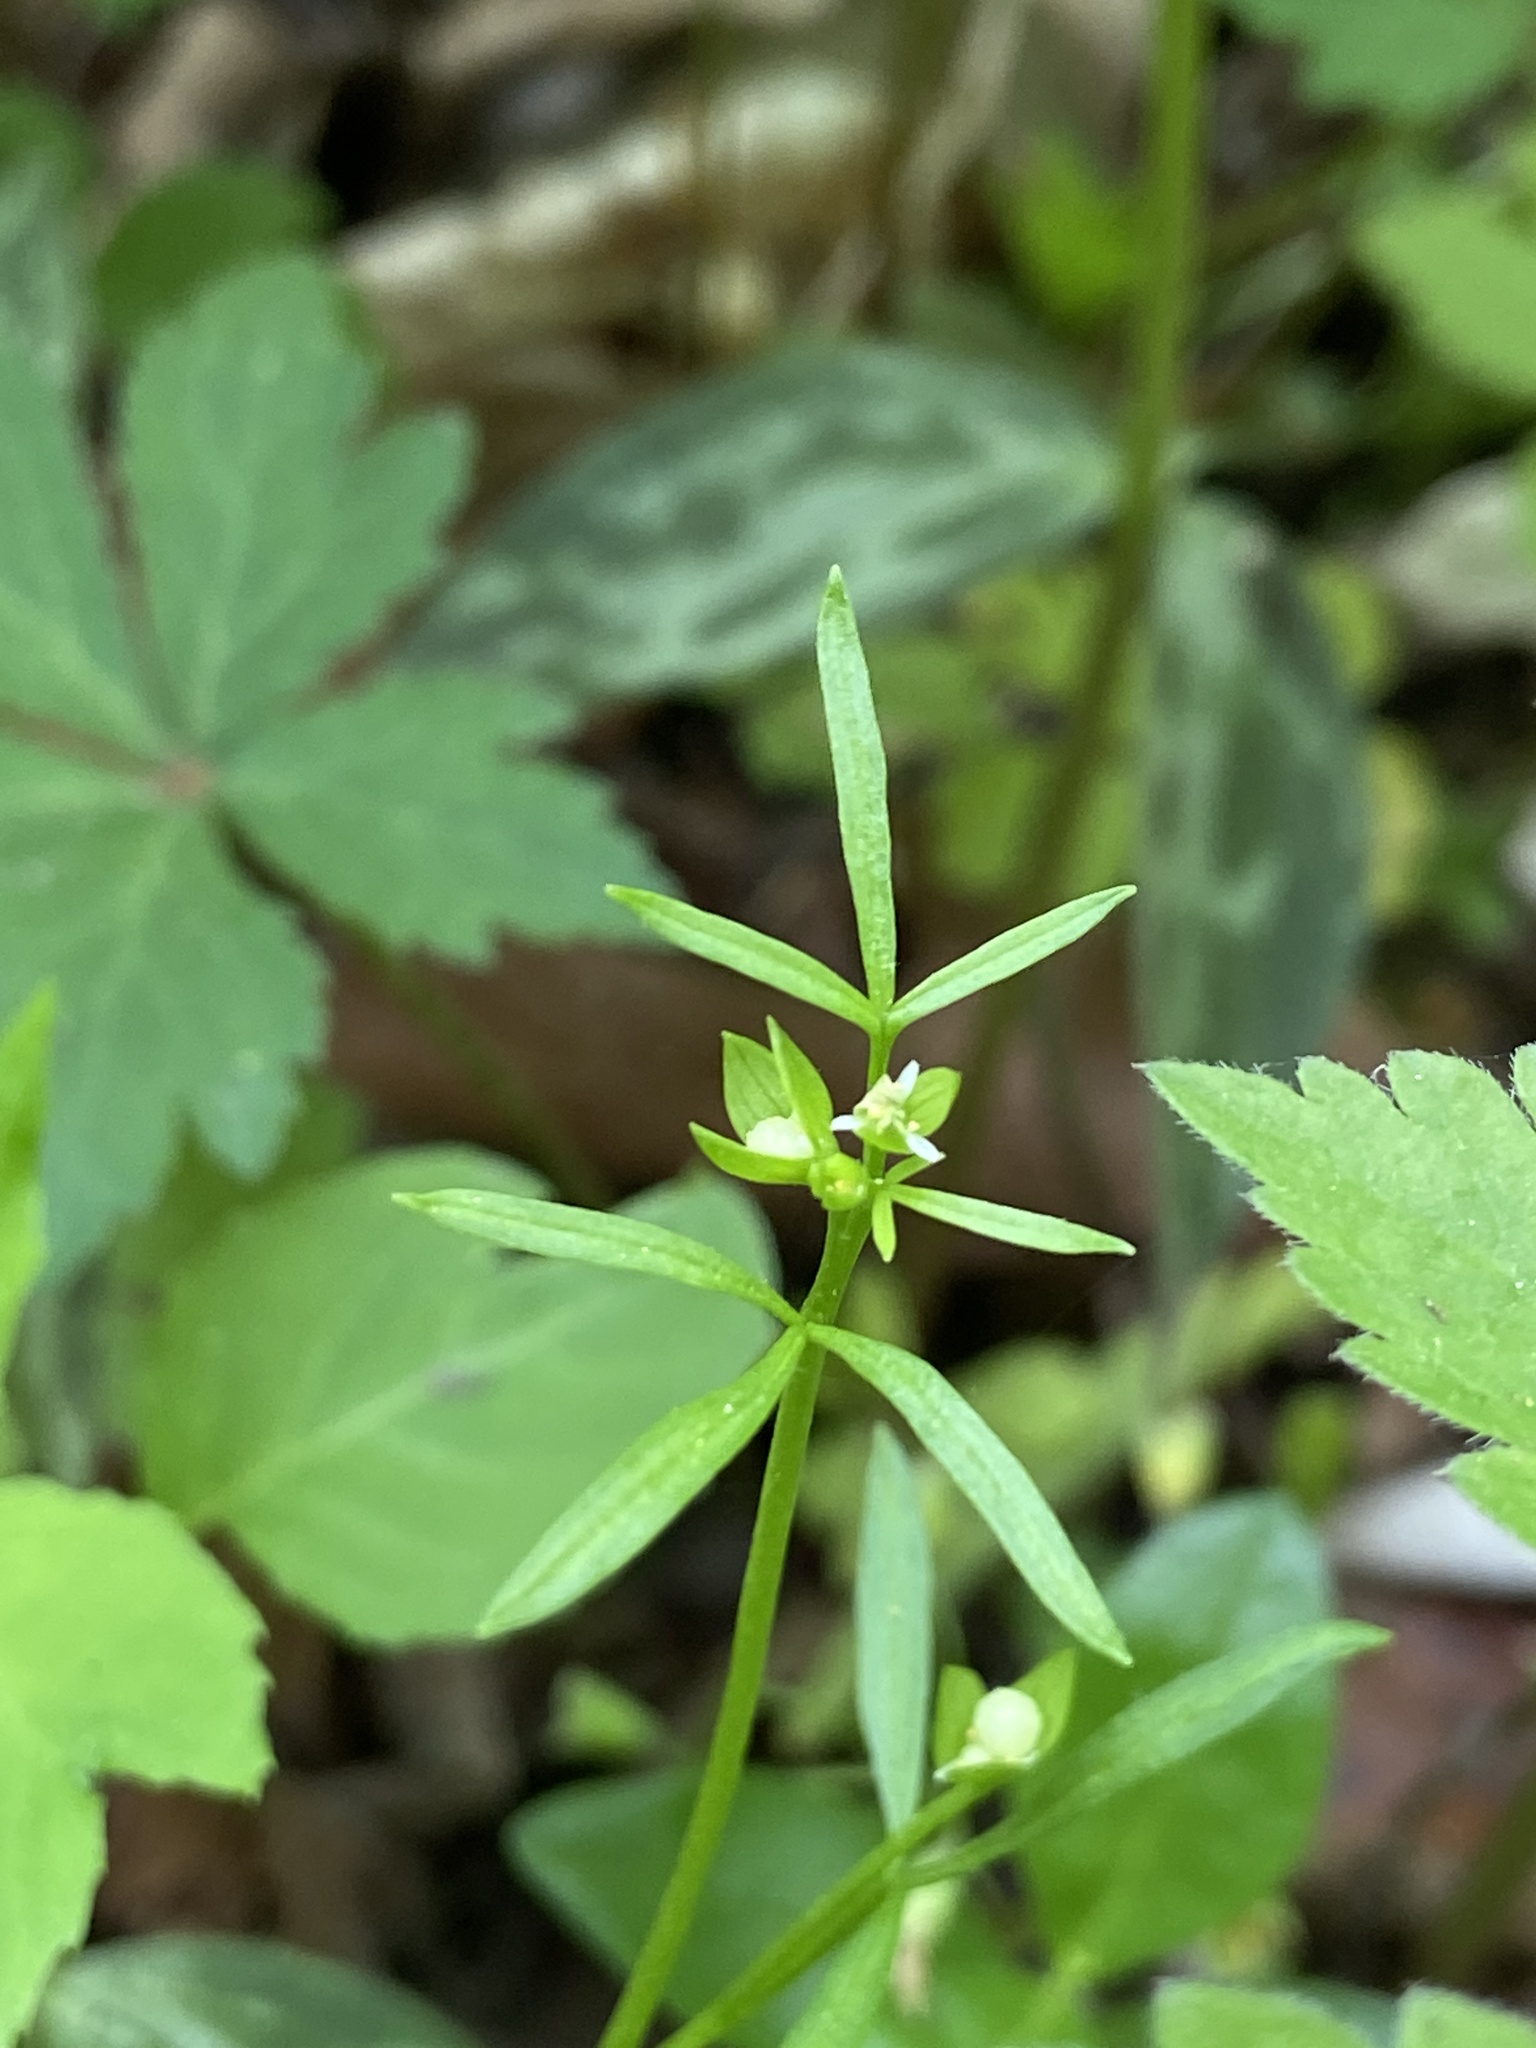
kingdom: Plantae
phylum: Tracheophyta
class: Magnoliopsida
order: Brassicales
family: Limnanthaceae
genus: Floerkea
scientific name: Floerkea proserpinacoides
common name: False mermaid
